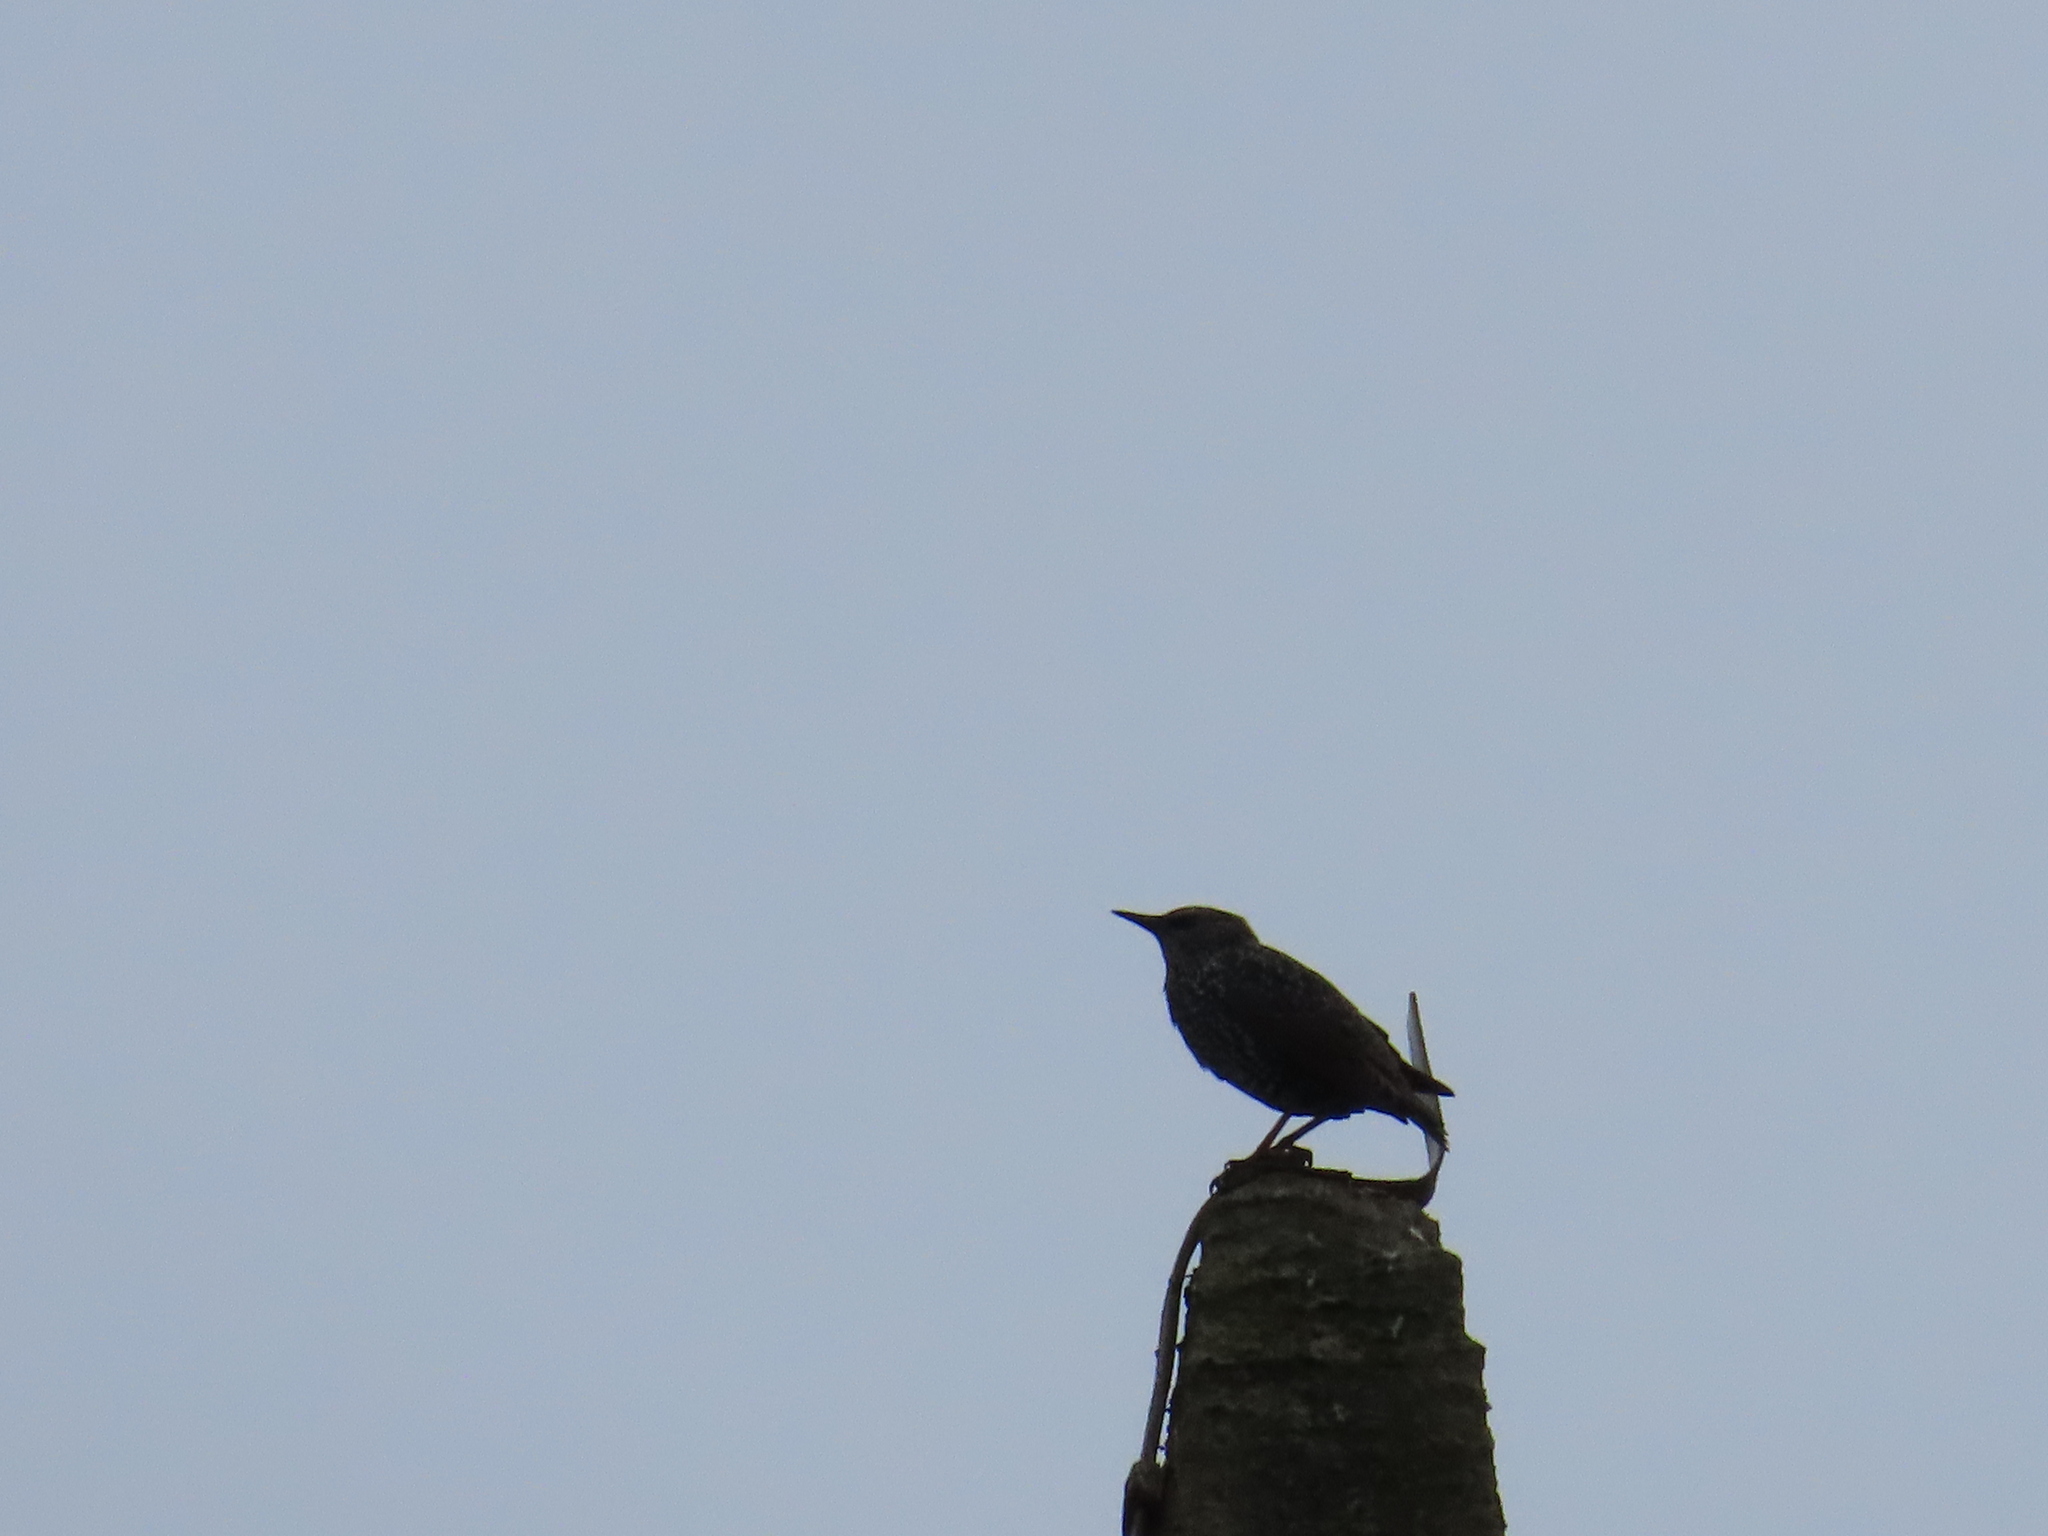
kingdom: Animalia
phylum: Chordata
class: Aves
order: Passeriformes
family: Sturnidae
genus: Sturnus
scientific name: Sturnus vulgaris
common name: Common starling
